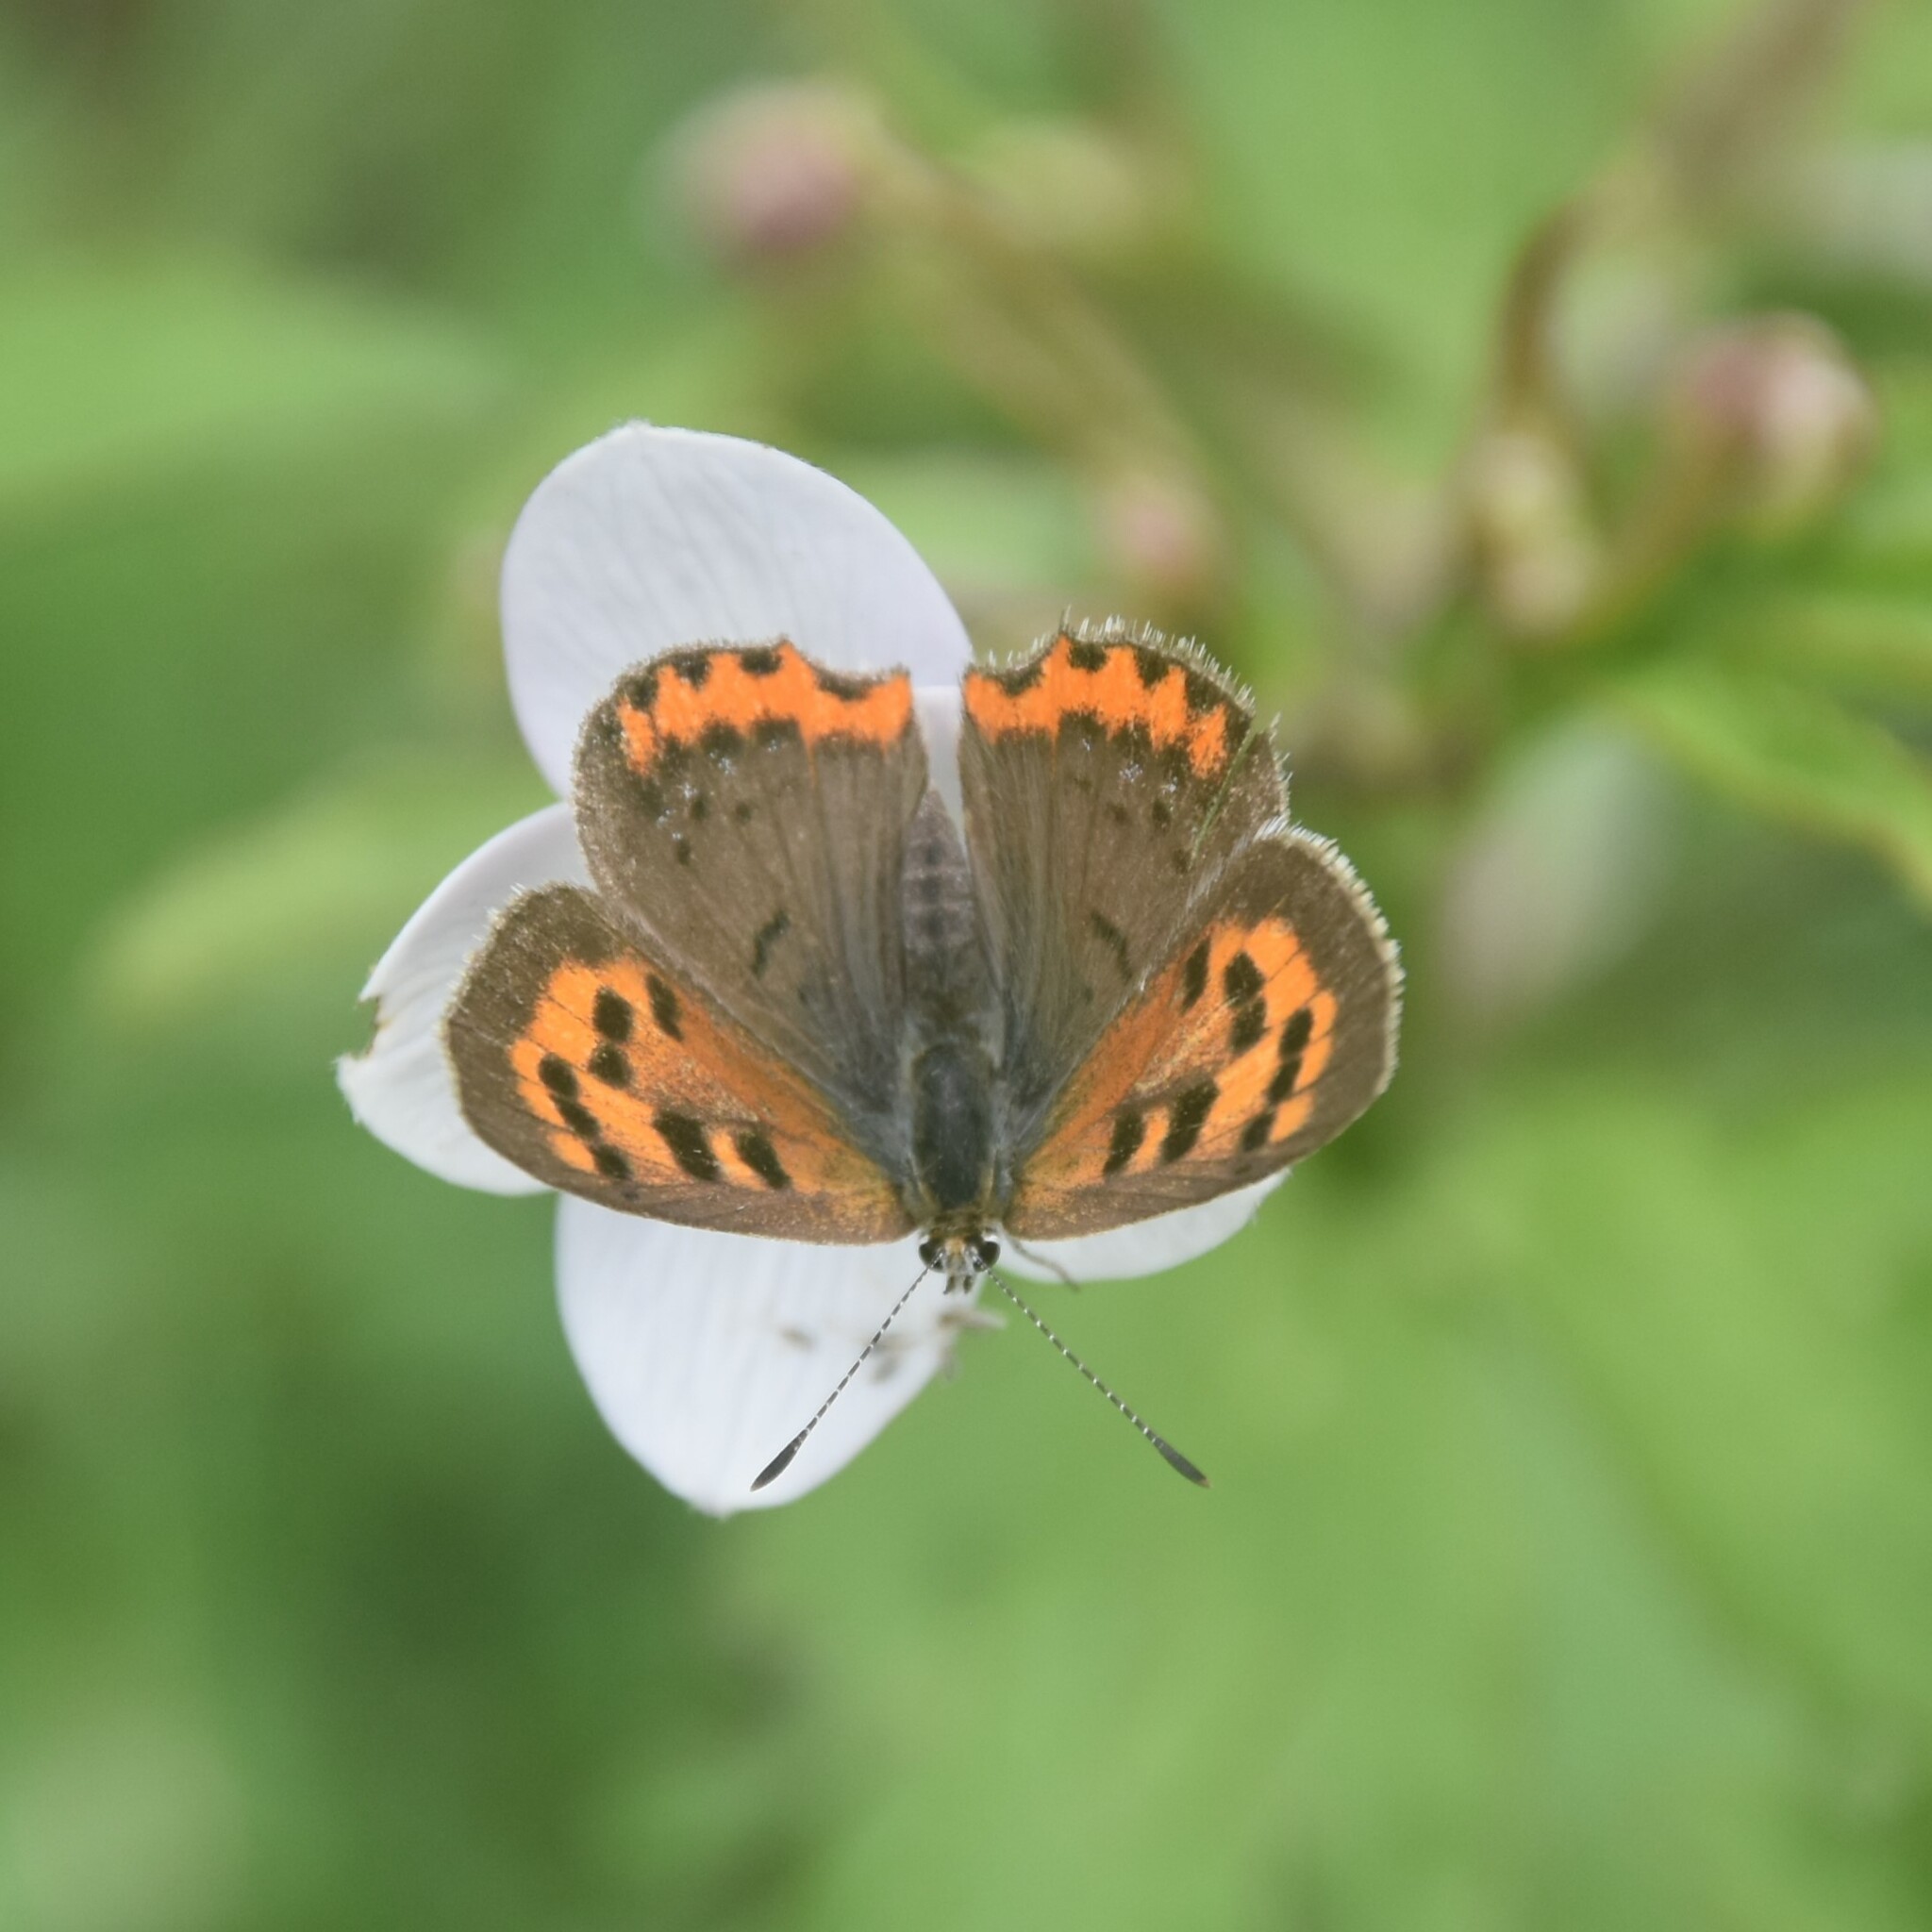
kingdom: Animalia
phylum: Arthropoda
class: Insecta
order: Lepidoptera
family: Lycaenidae
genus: Lycaena
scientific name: Lycaena phlaeas
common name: Small copper
